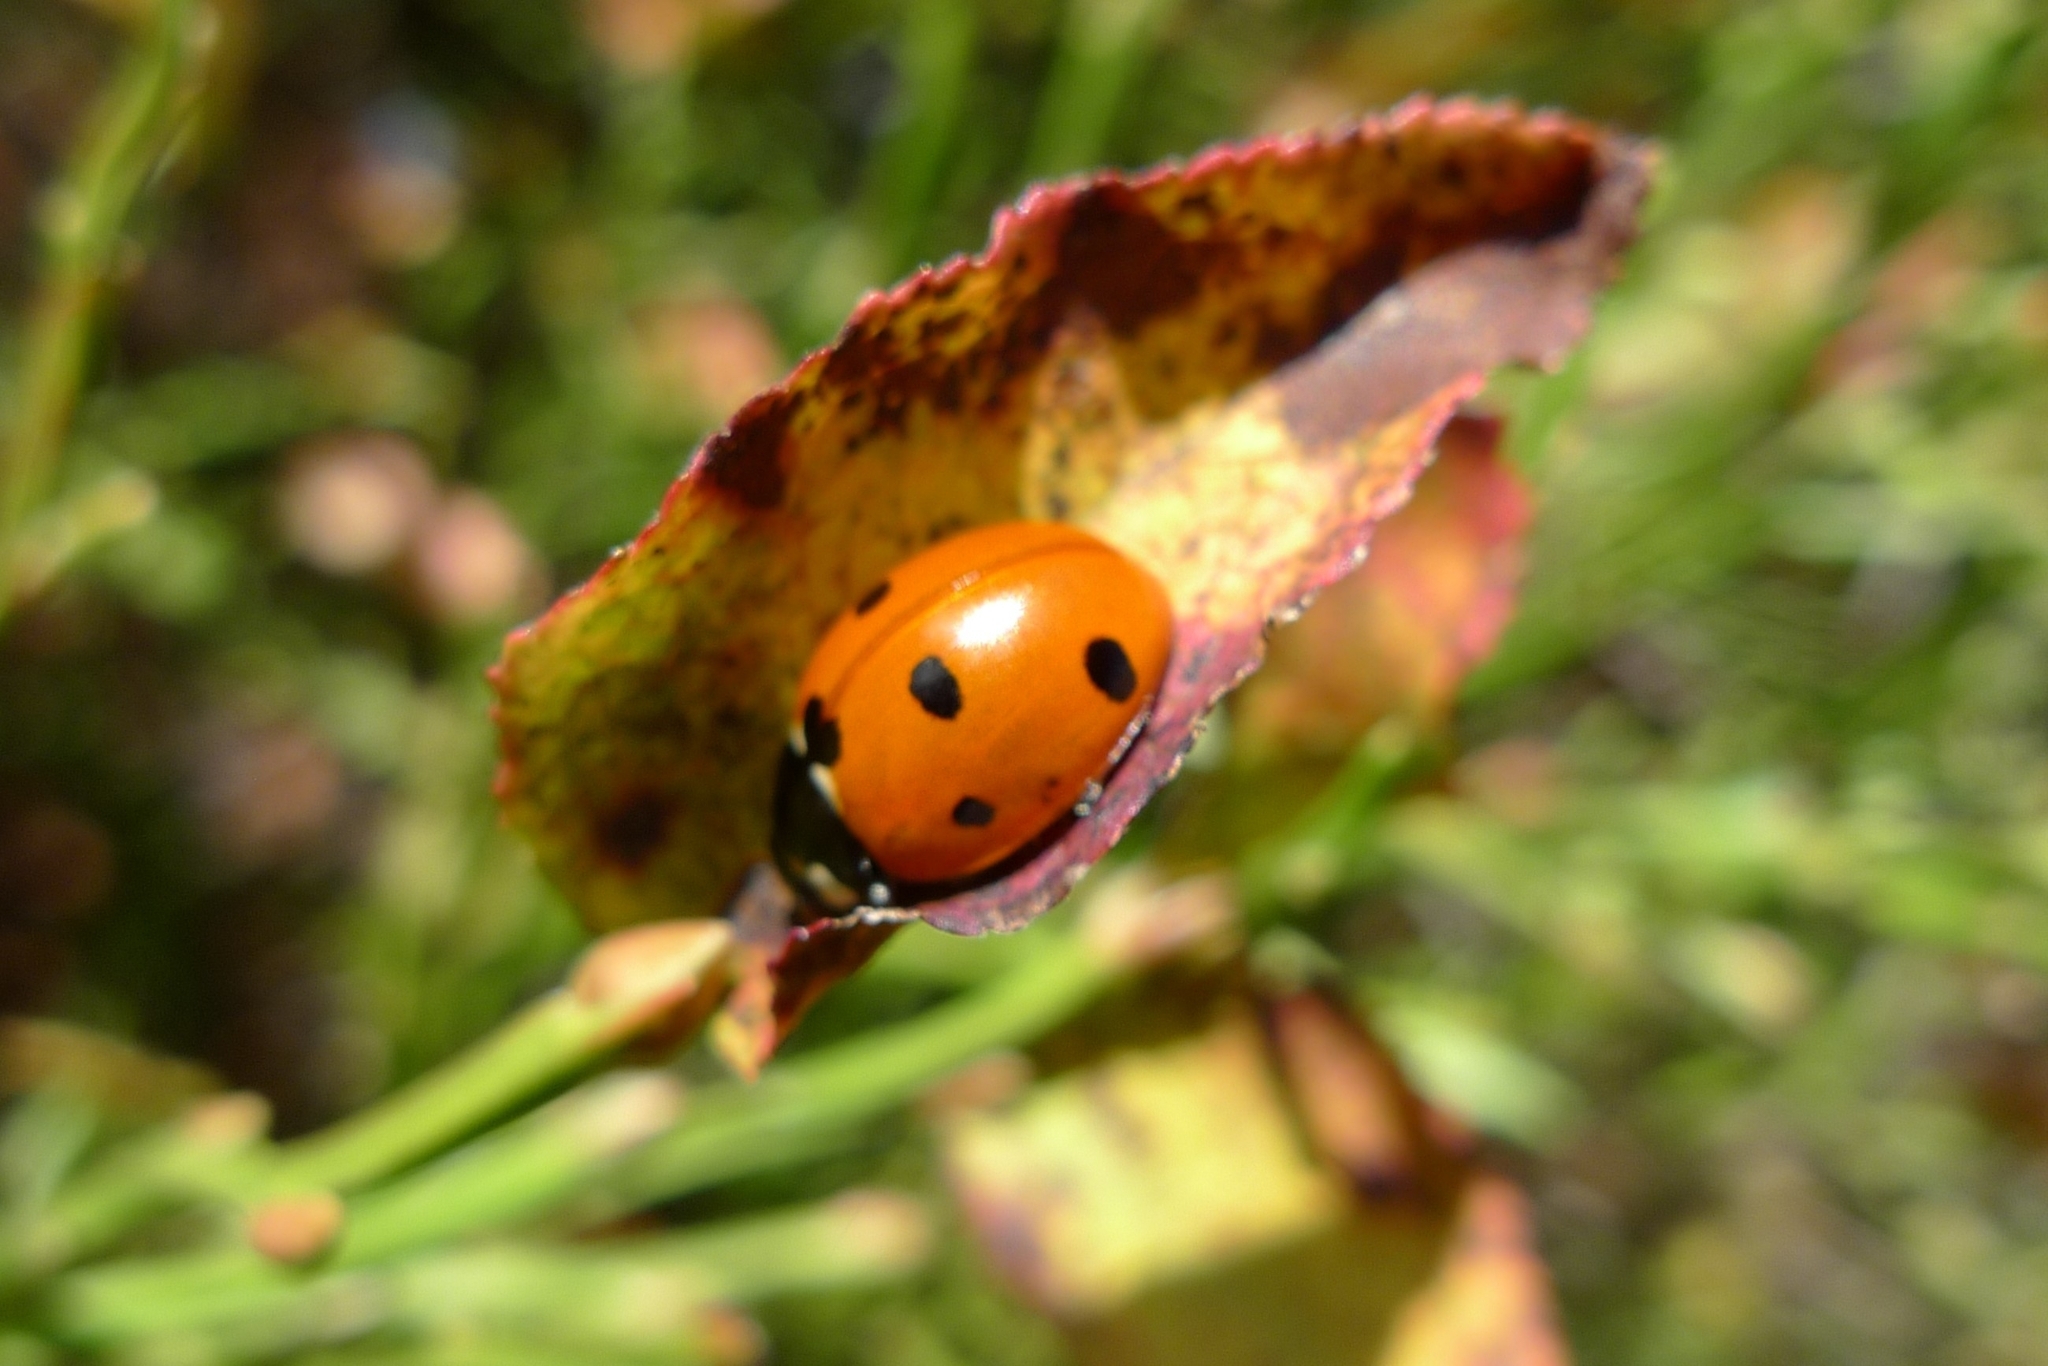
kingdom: Animalia
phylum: Arthropoda
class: Insecta
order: Coleoptera
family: Coccinellidae
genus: Coccinella
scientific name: Coccinella septempunctata
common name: Sevenspotted lady beetle
